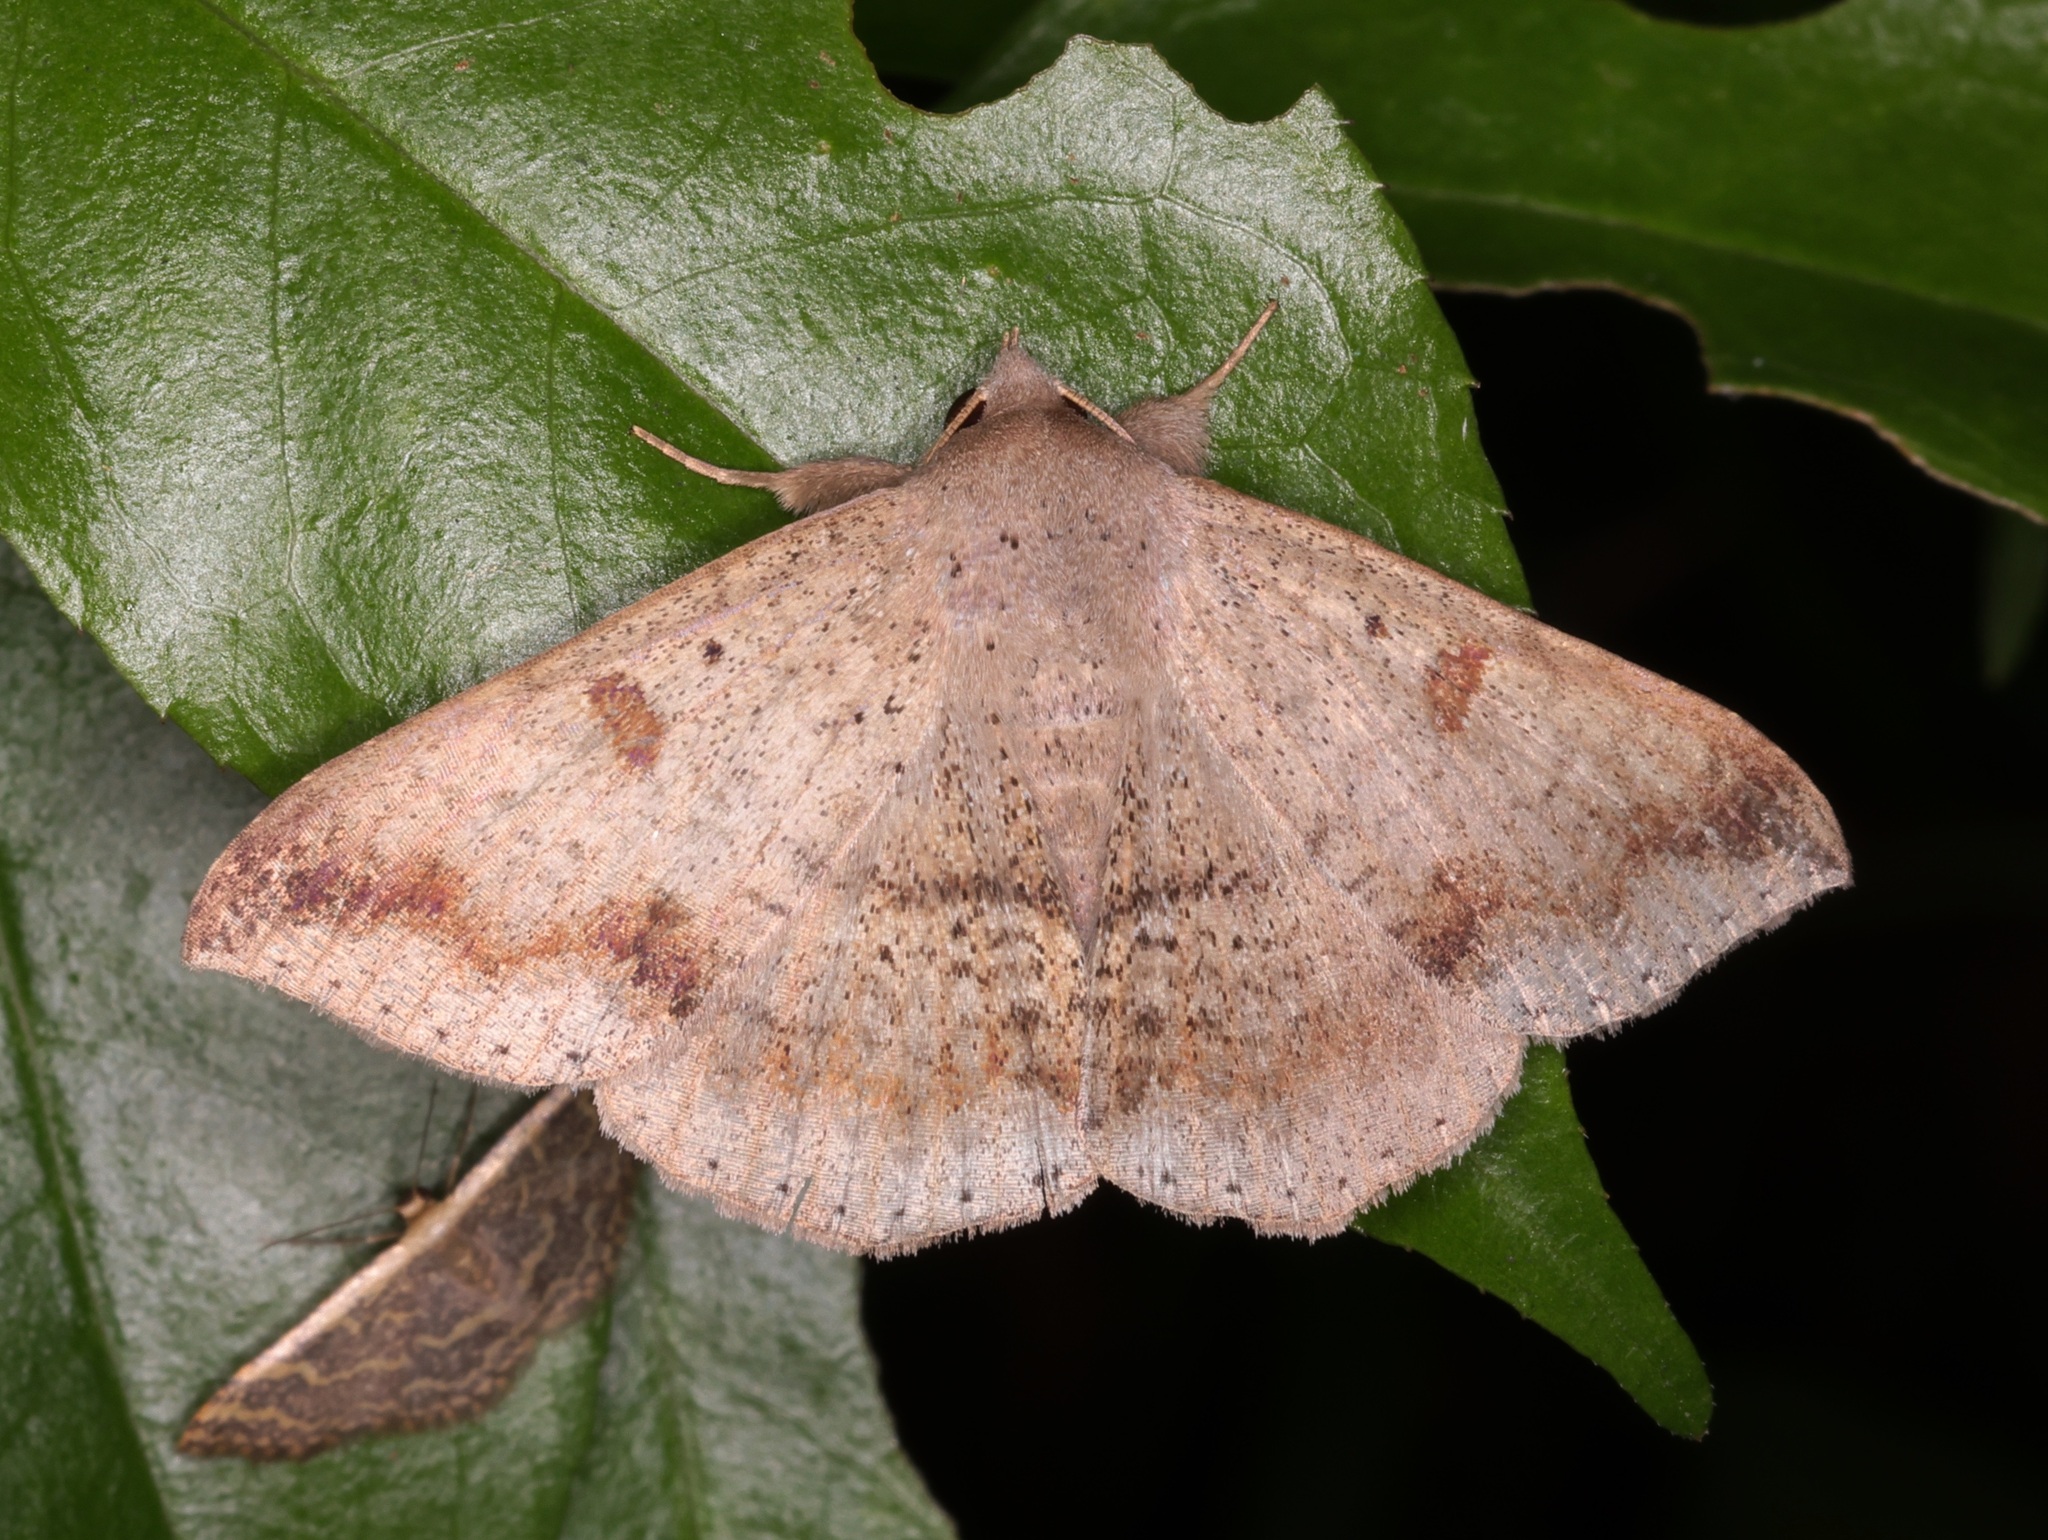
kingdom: Animalia
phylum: Arthropoda
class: Insecta
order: Lepidoptera
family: Erebidae
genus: Ericeia
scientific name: Ericeia inangulata
